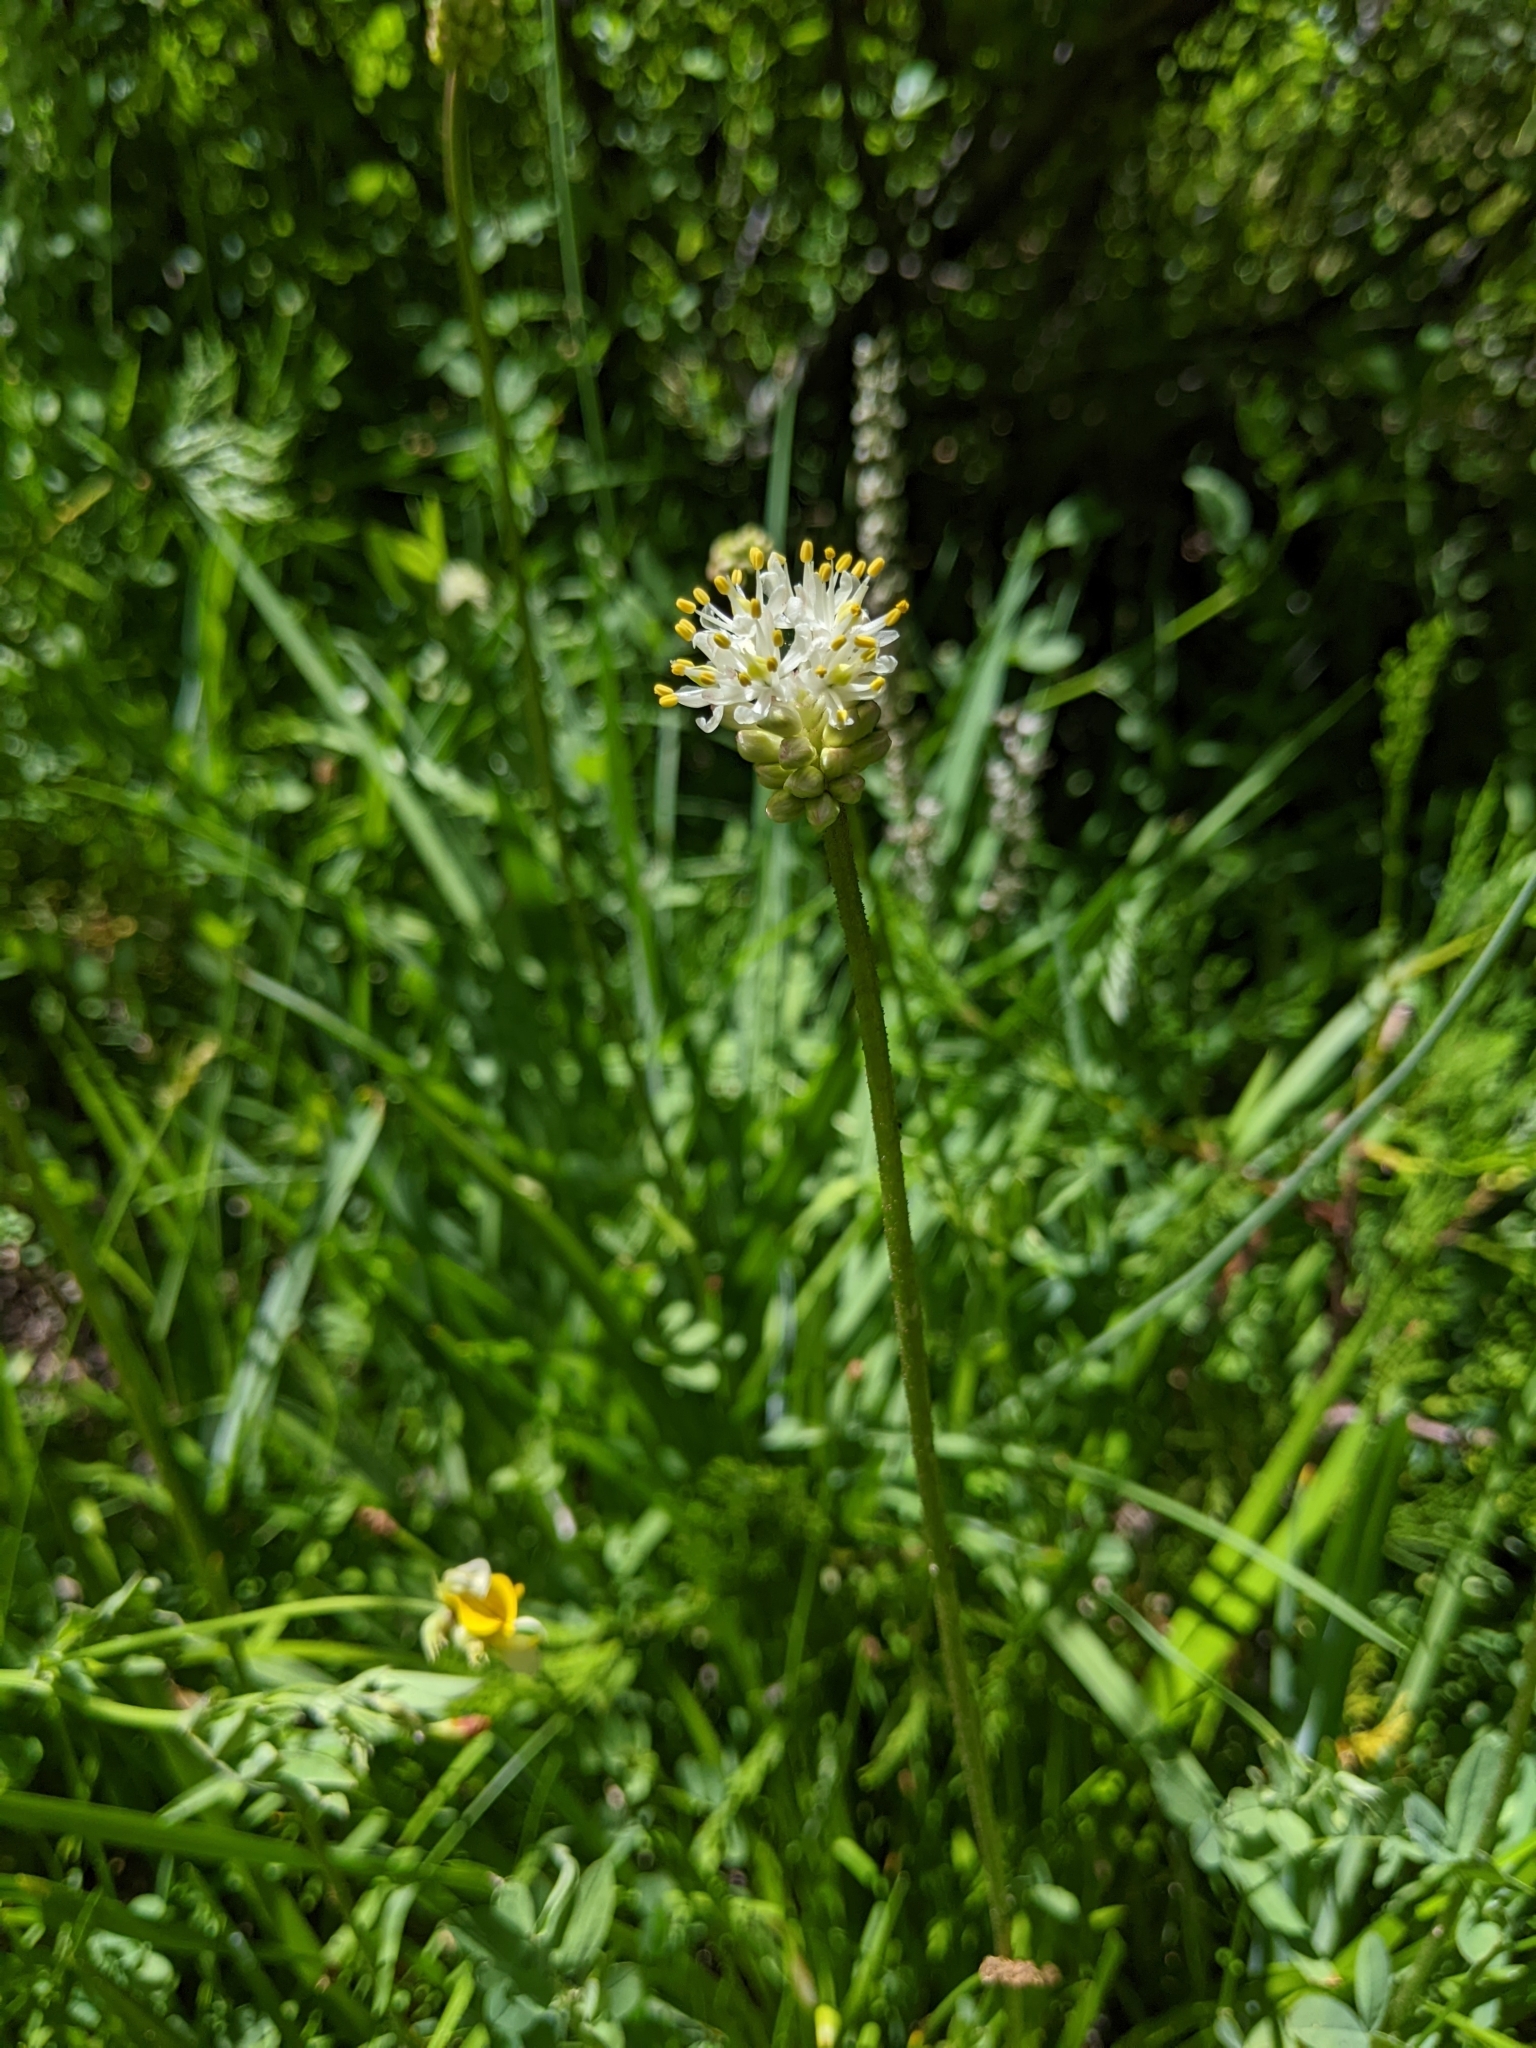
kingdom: Plantae
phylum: Tracheophyta
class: Liliopsida
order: Alismatales
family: Tofieldiaceae
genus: Triantha
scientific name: Triantha occidentalis
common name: Western false asphodel
